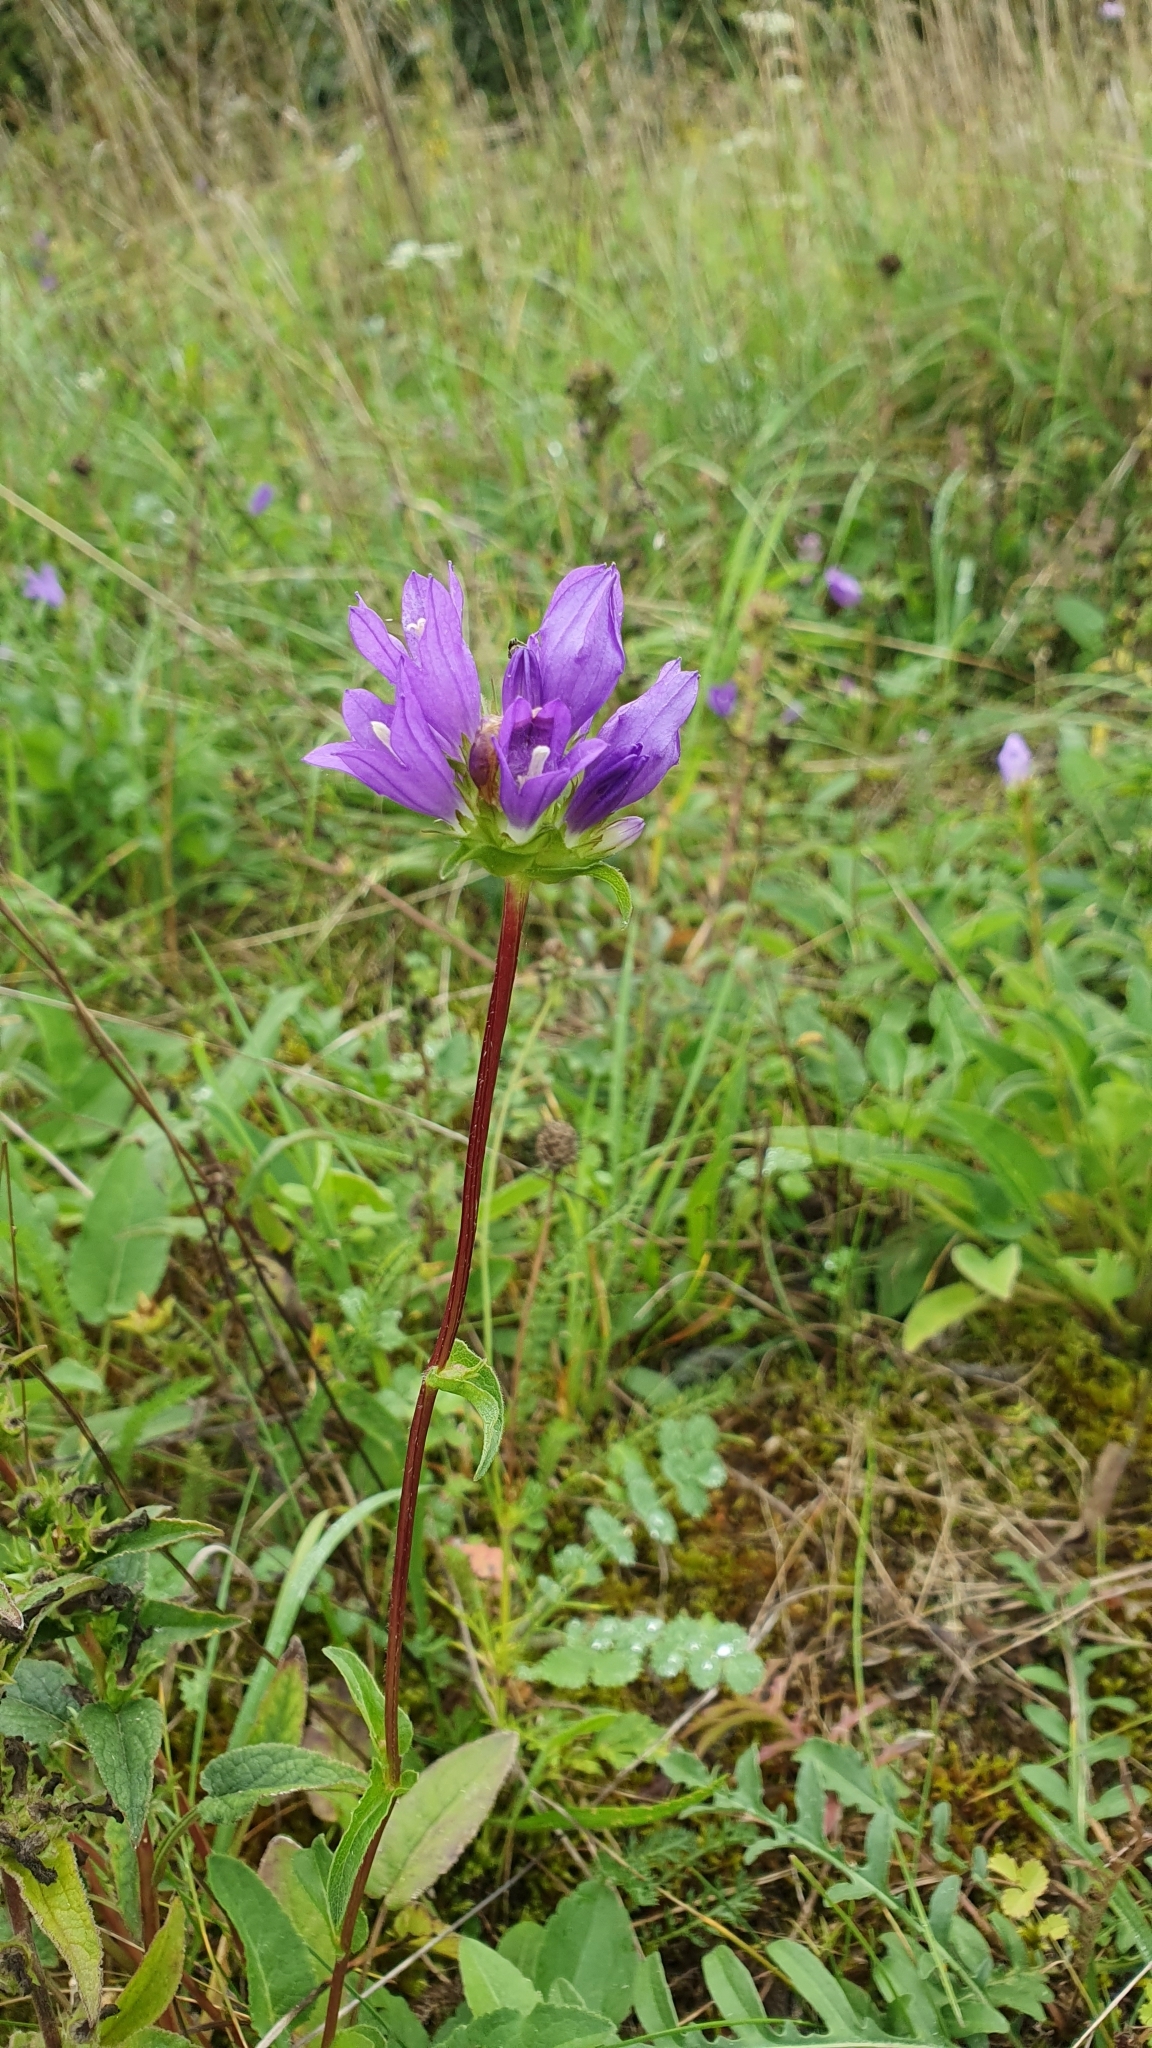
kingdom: Plantae
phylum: Tracheophyta
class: Magnoliopsida
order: Asterales
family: Campanulaceae
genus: Campanula
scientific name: Campanula glomerata
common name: Clustered bellflower
